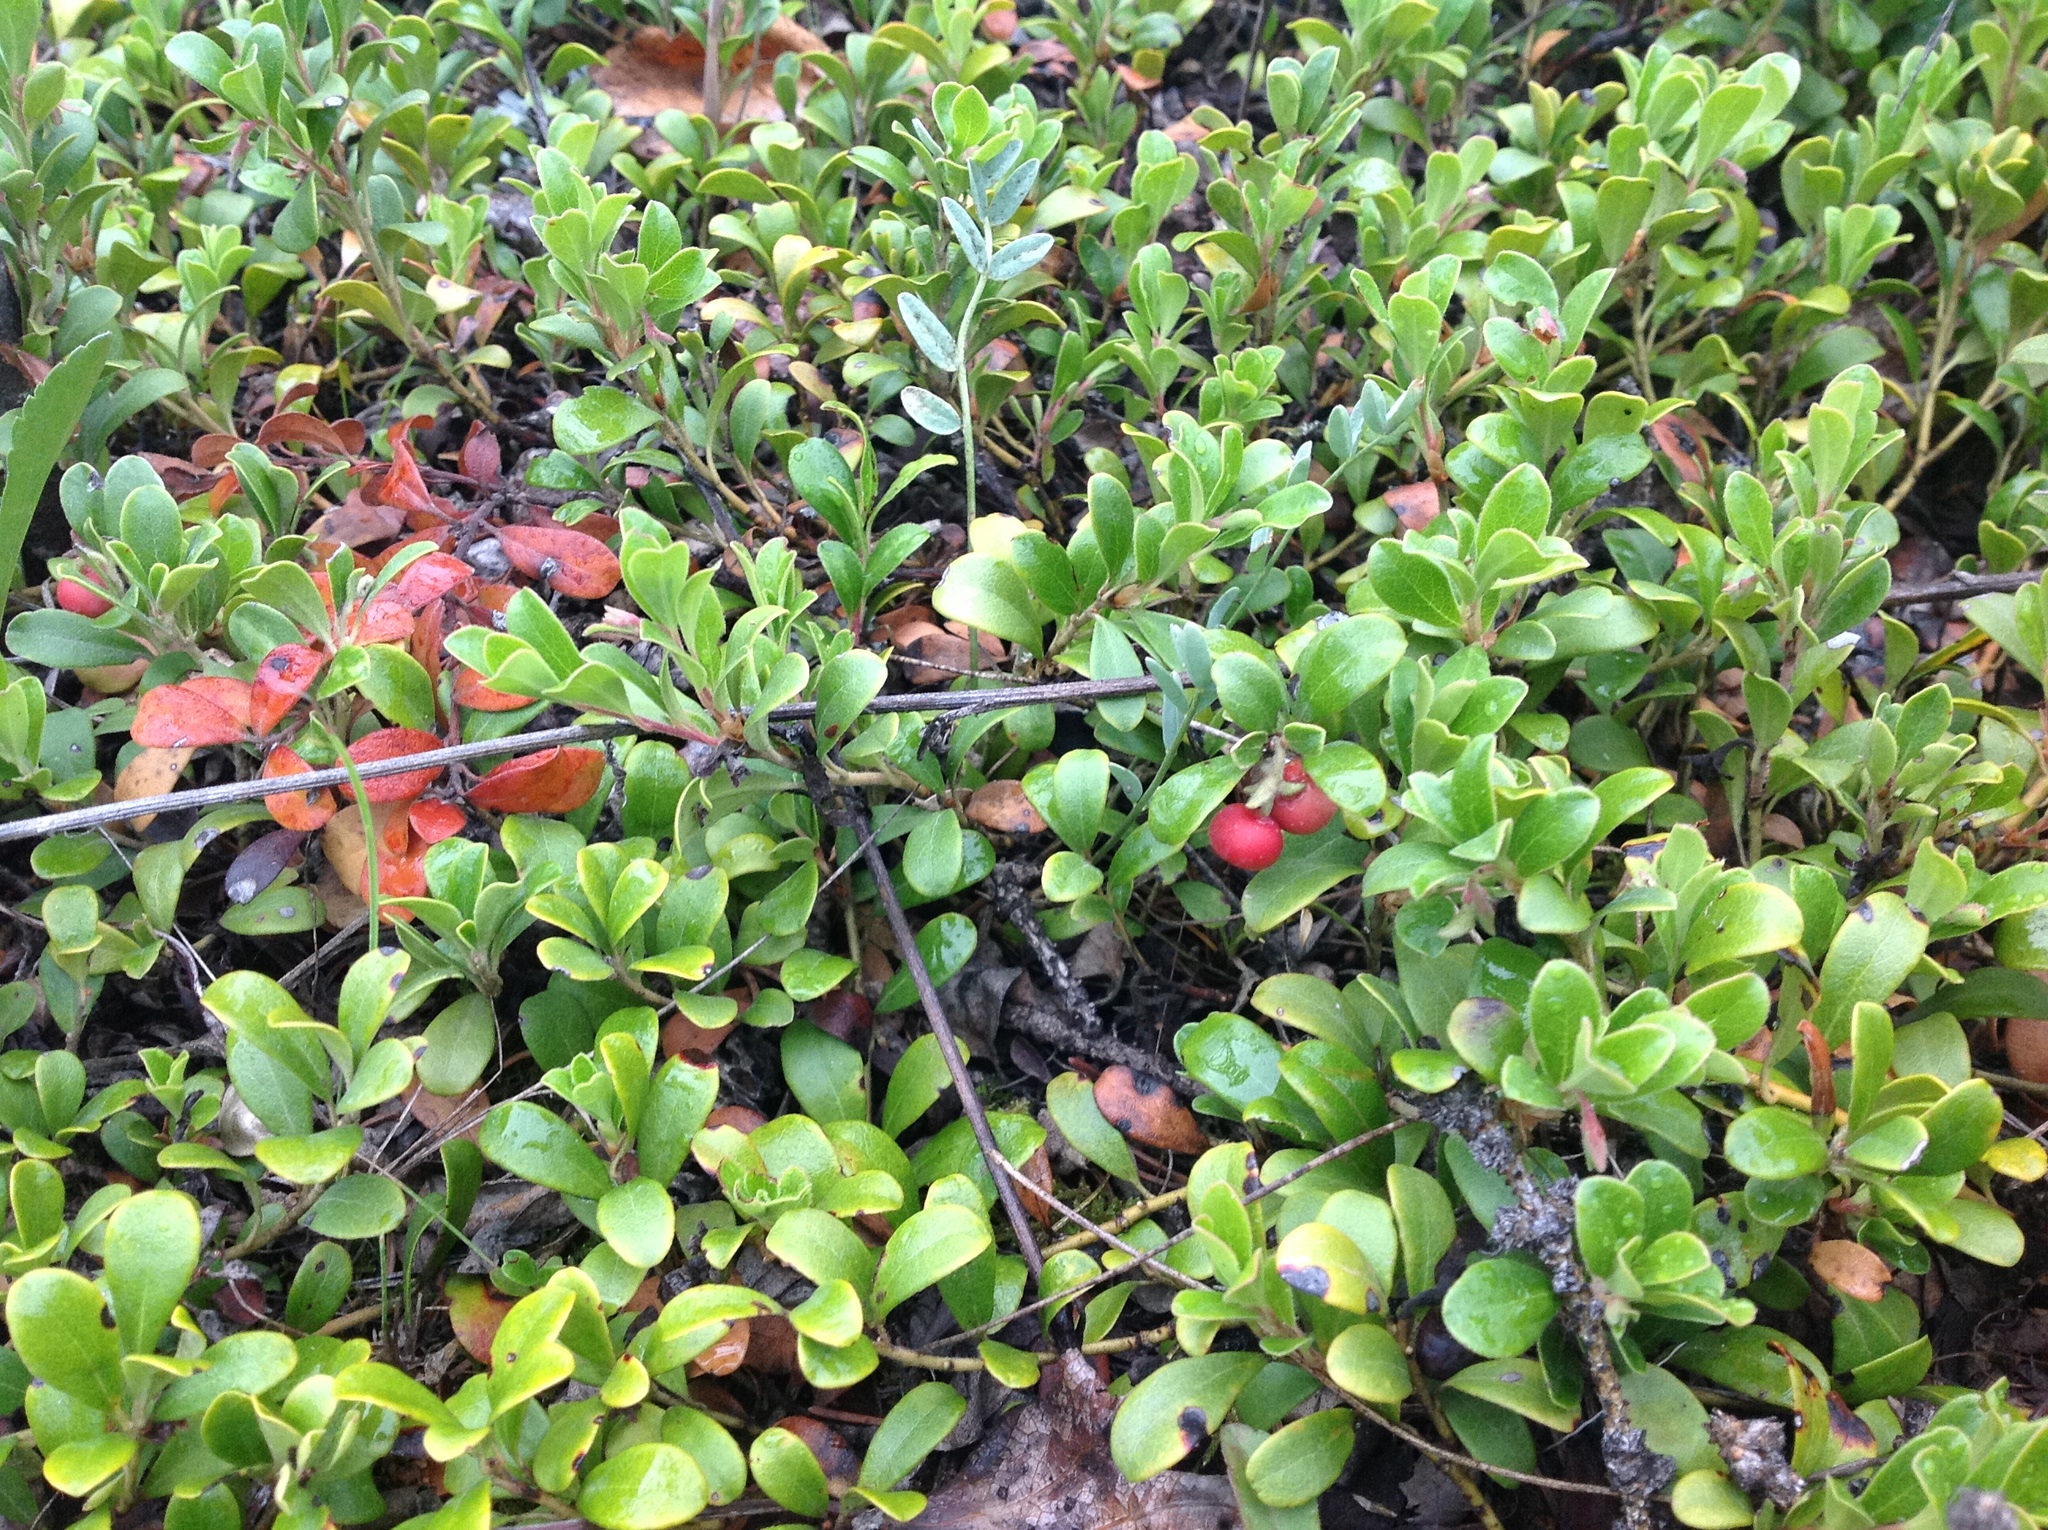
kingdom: Plantae
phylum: Tracheophyta
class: Magnoliopsida
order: Ericales
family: Ericaceae
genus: Arctostaphylos
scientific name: Arctostaphylos uva-ursi
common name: Bearberry
